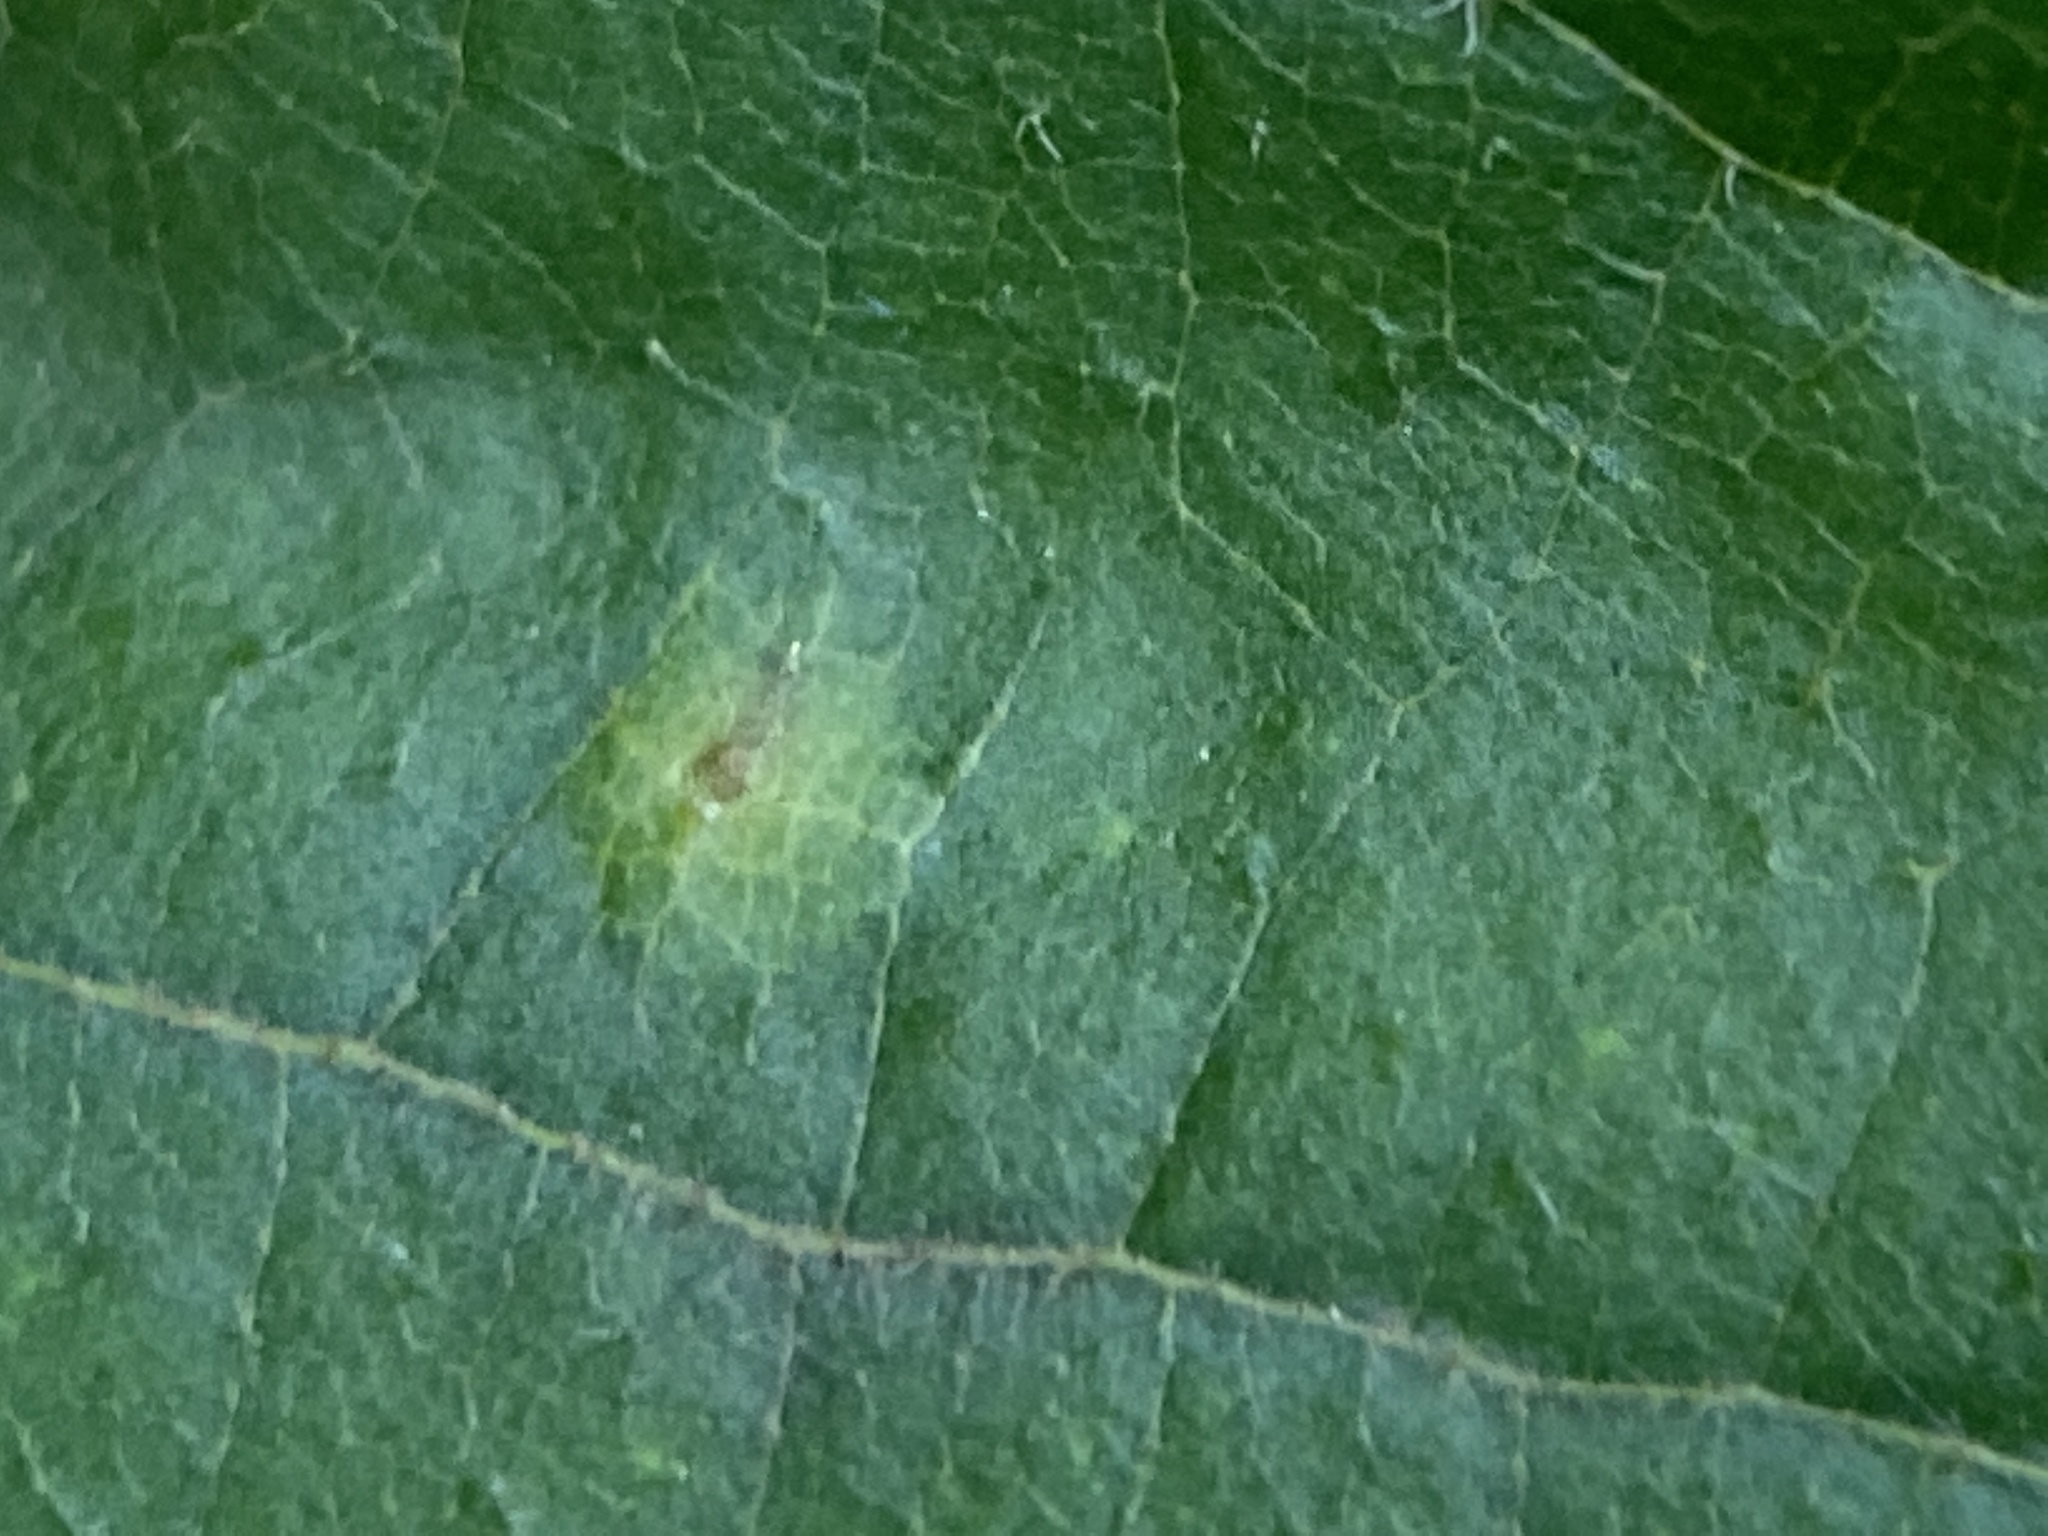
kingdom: Animalia
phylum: Arthropoda
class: Insecta
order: Diptera
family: Cecidomyiidae
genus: Caryomyia
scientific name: Caryomyia tubicola
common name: Hickory bullet gall midge
